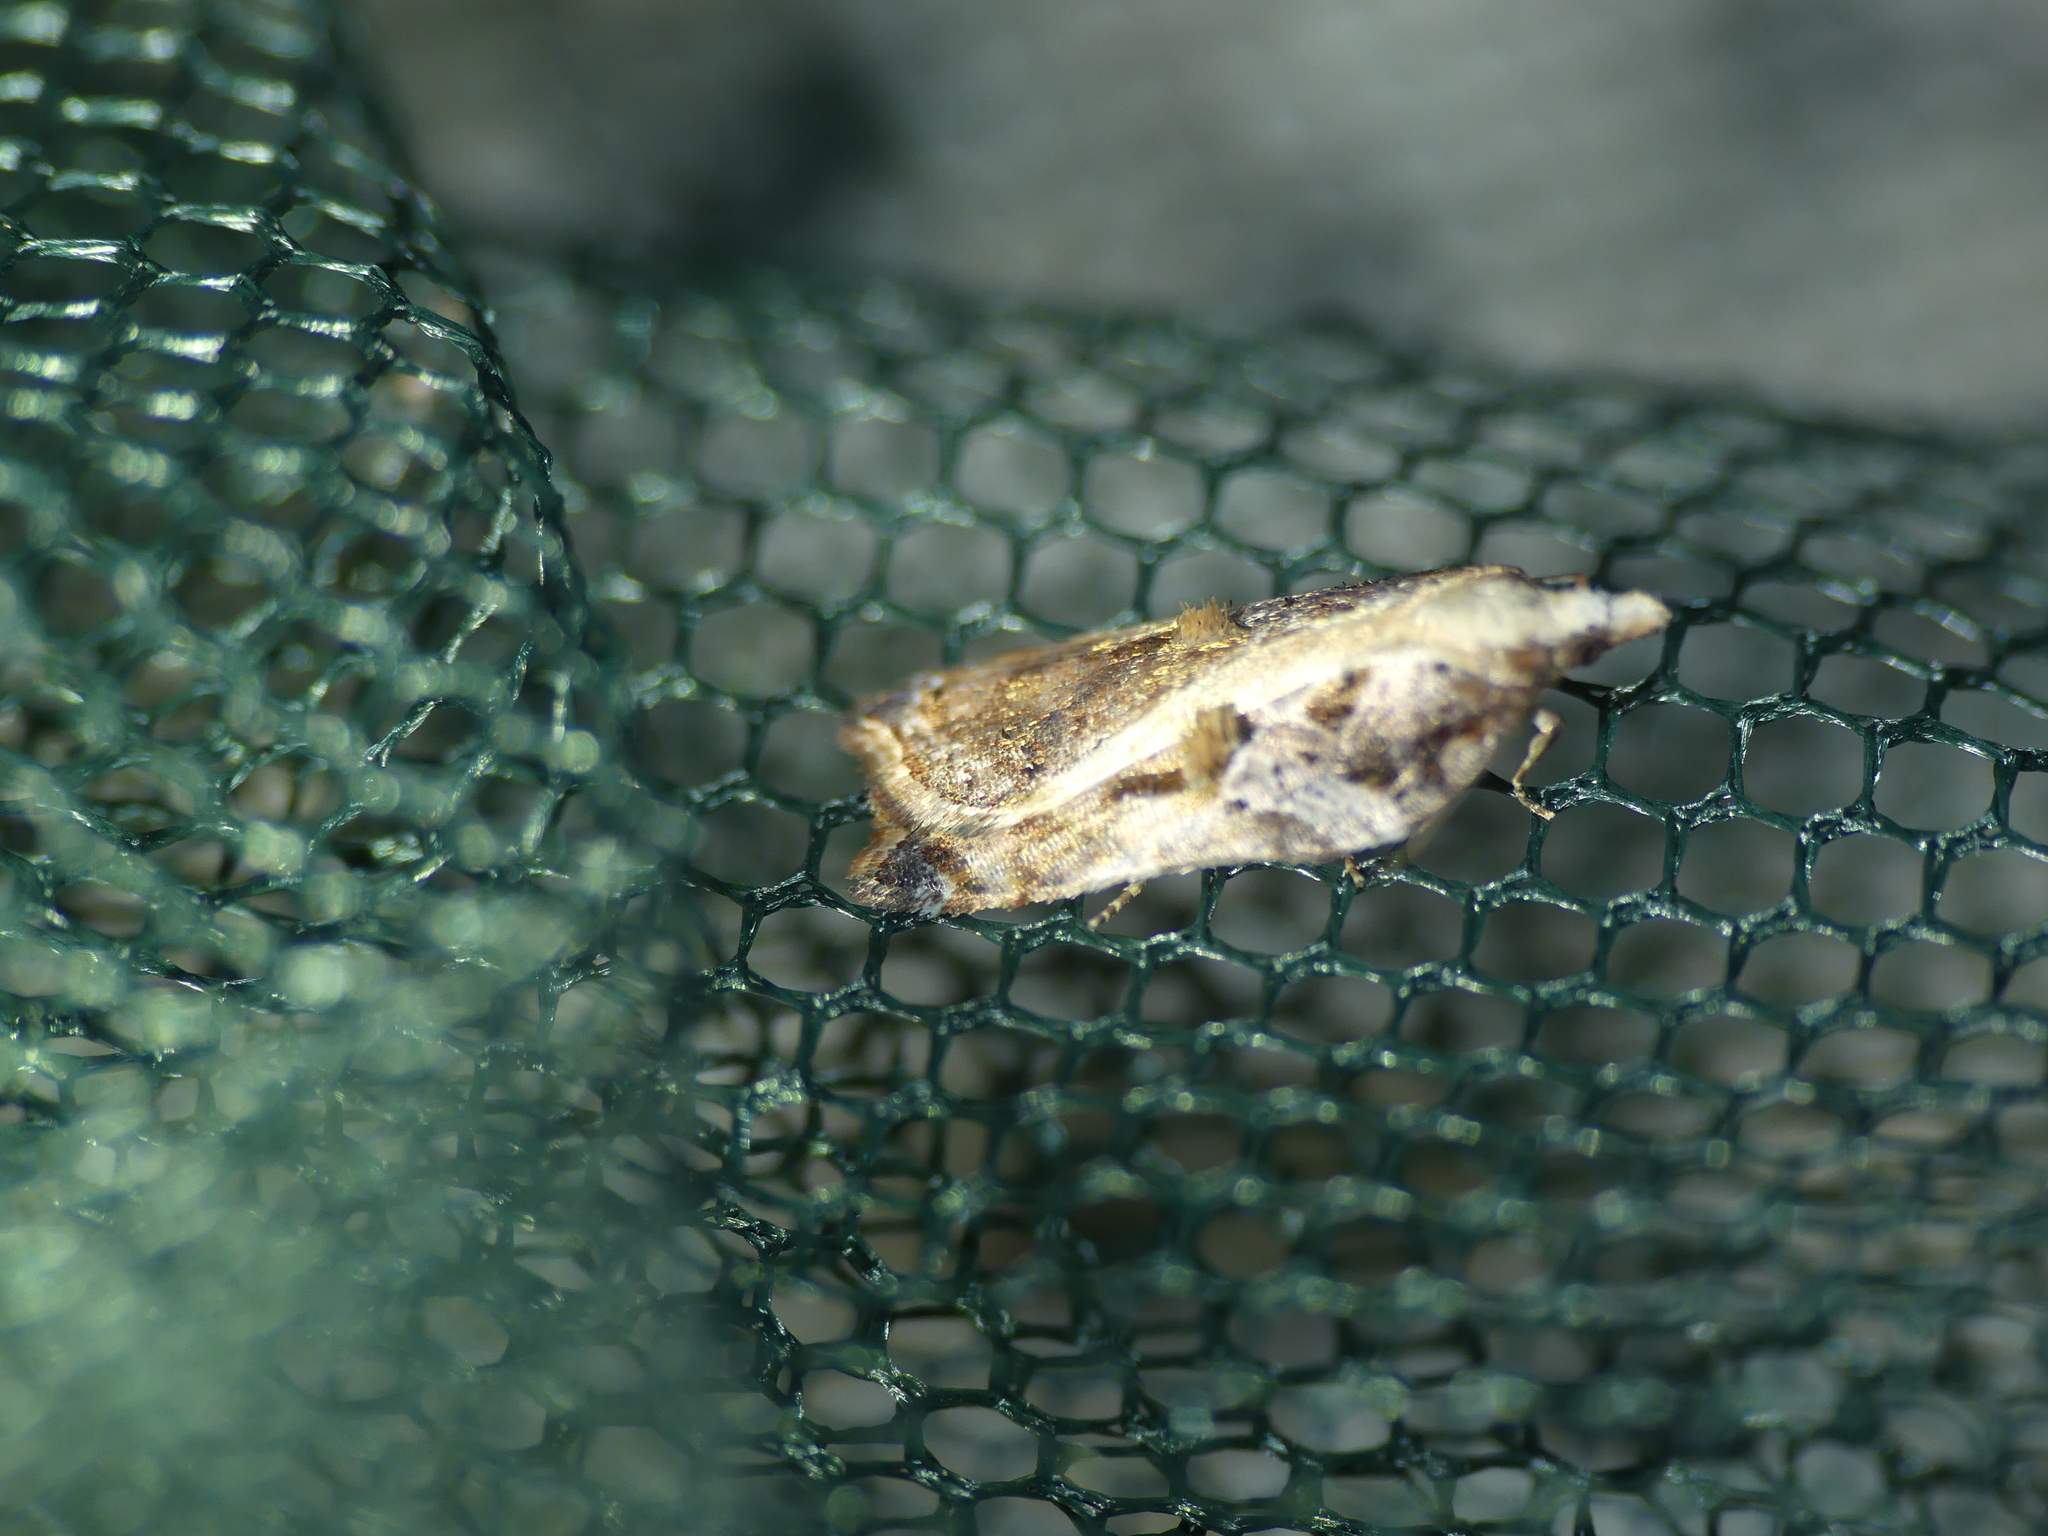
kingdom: Animalia
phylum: Arthropoda
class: Insecta
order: Lepidoptera
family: Tortricidae
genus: Acleris
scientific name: Acleris cristana
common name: Tufted button
